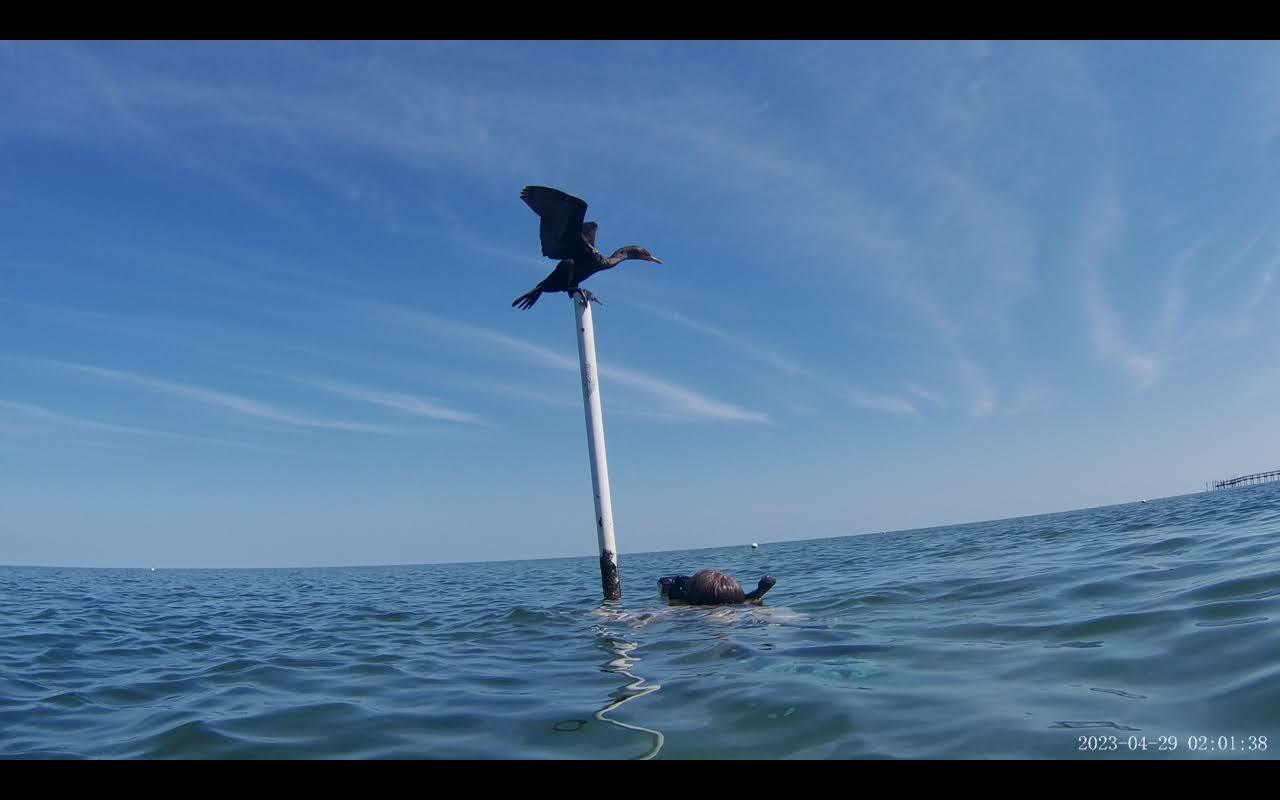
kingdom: Animalia
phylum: Chordata
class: Aves
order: Suliformes
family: Phalacrocoracidae
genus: Phalacrocorax
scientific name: Phalacrocorax auritus
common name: Double-crested cormorant
